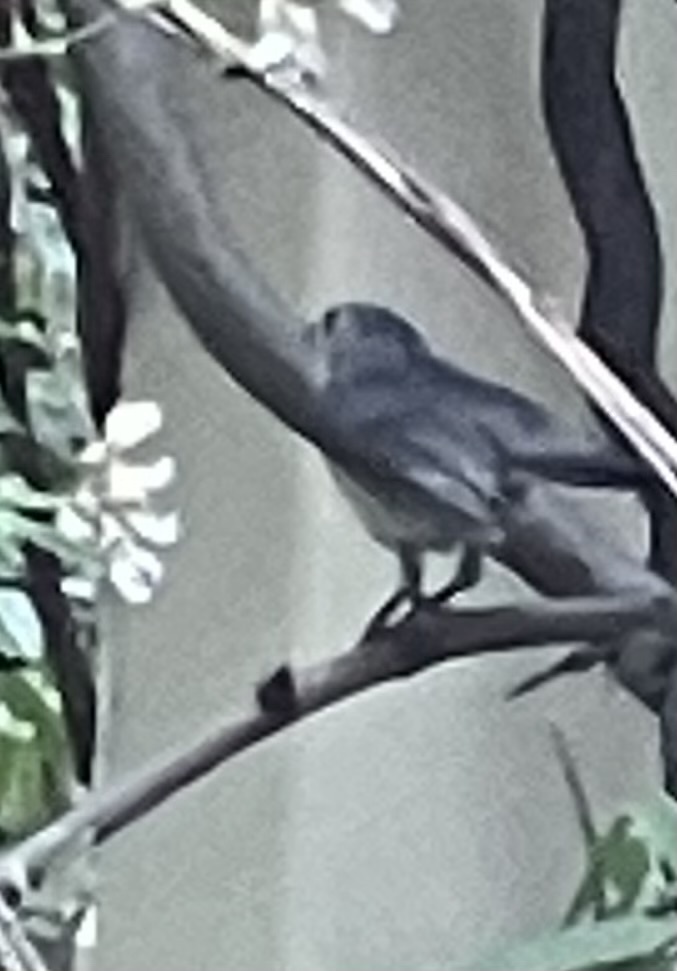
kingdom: Animalia
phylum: Chordata
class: Aves
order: Passeriformes
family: Polioptilidae
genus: Polioptila
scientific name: Polioptila caerulea
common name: Blue-gray gnatcatcher
